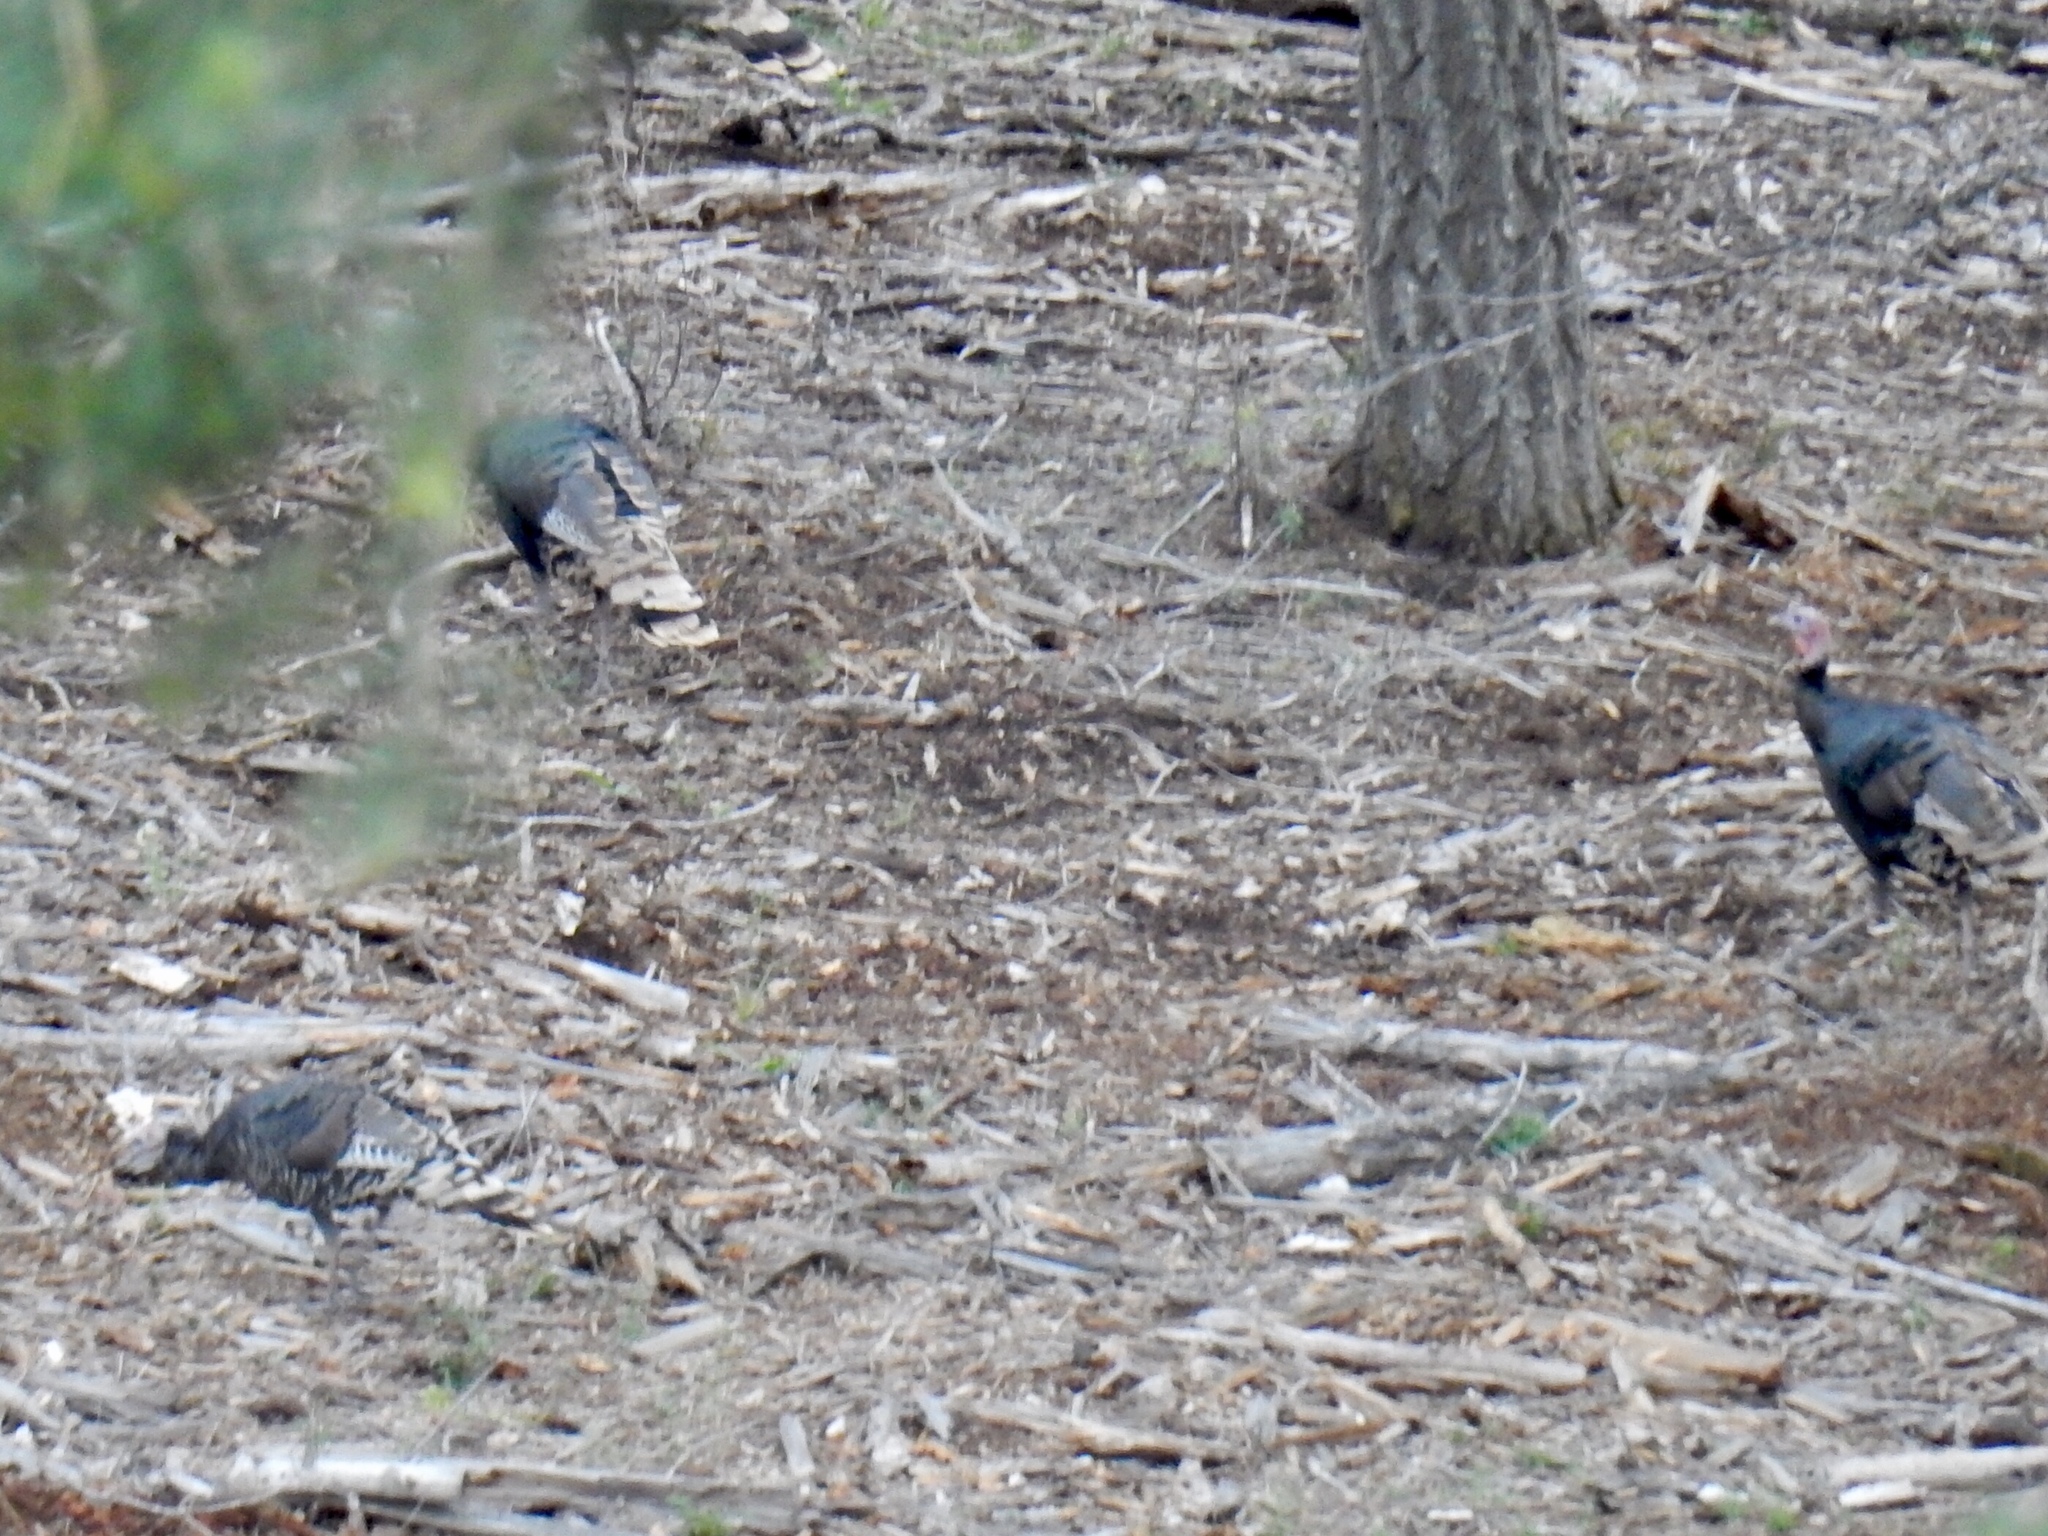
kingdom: Animalia
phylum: Chordata
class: Aves
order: Galliformes
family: Phasianidae
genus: Meleagris
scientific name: Meleagris gallopavo
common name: Wild turkey
